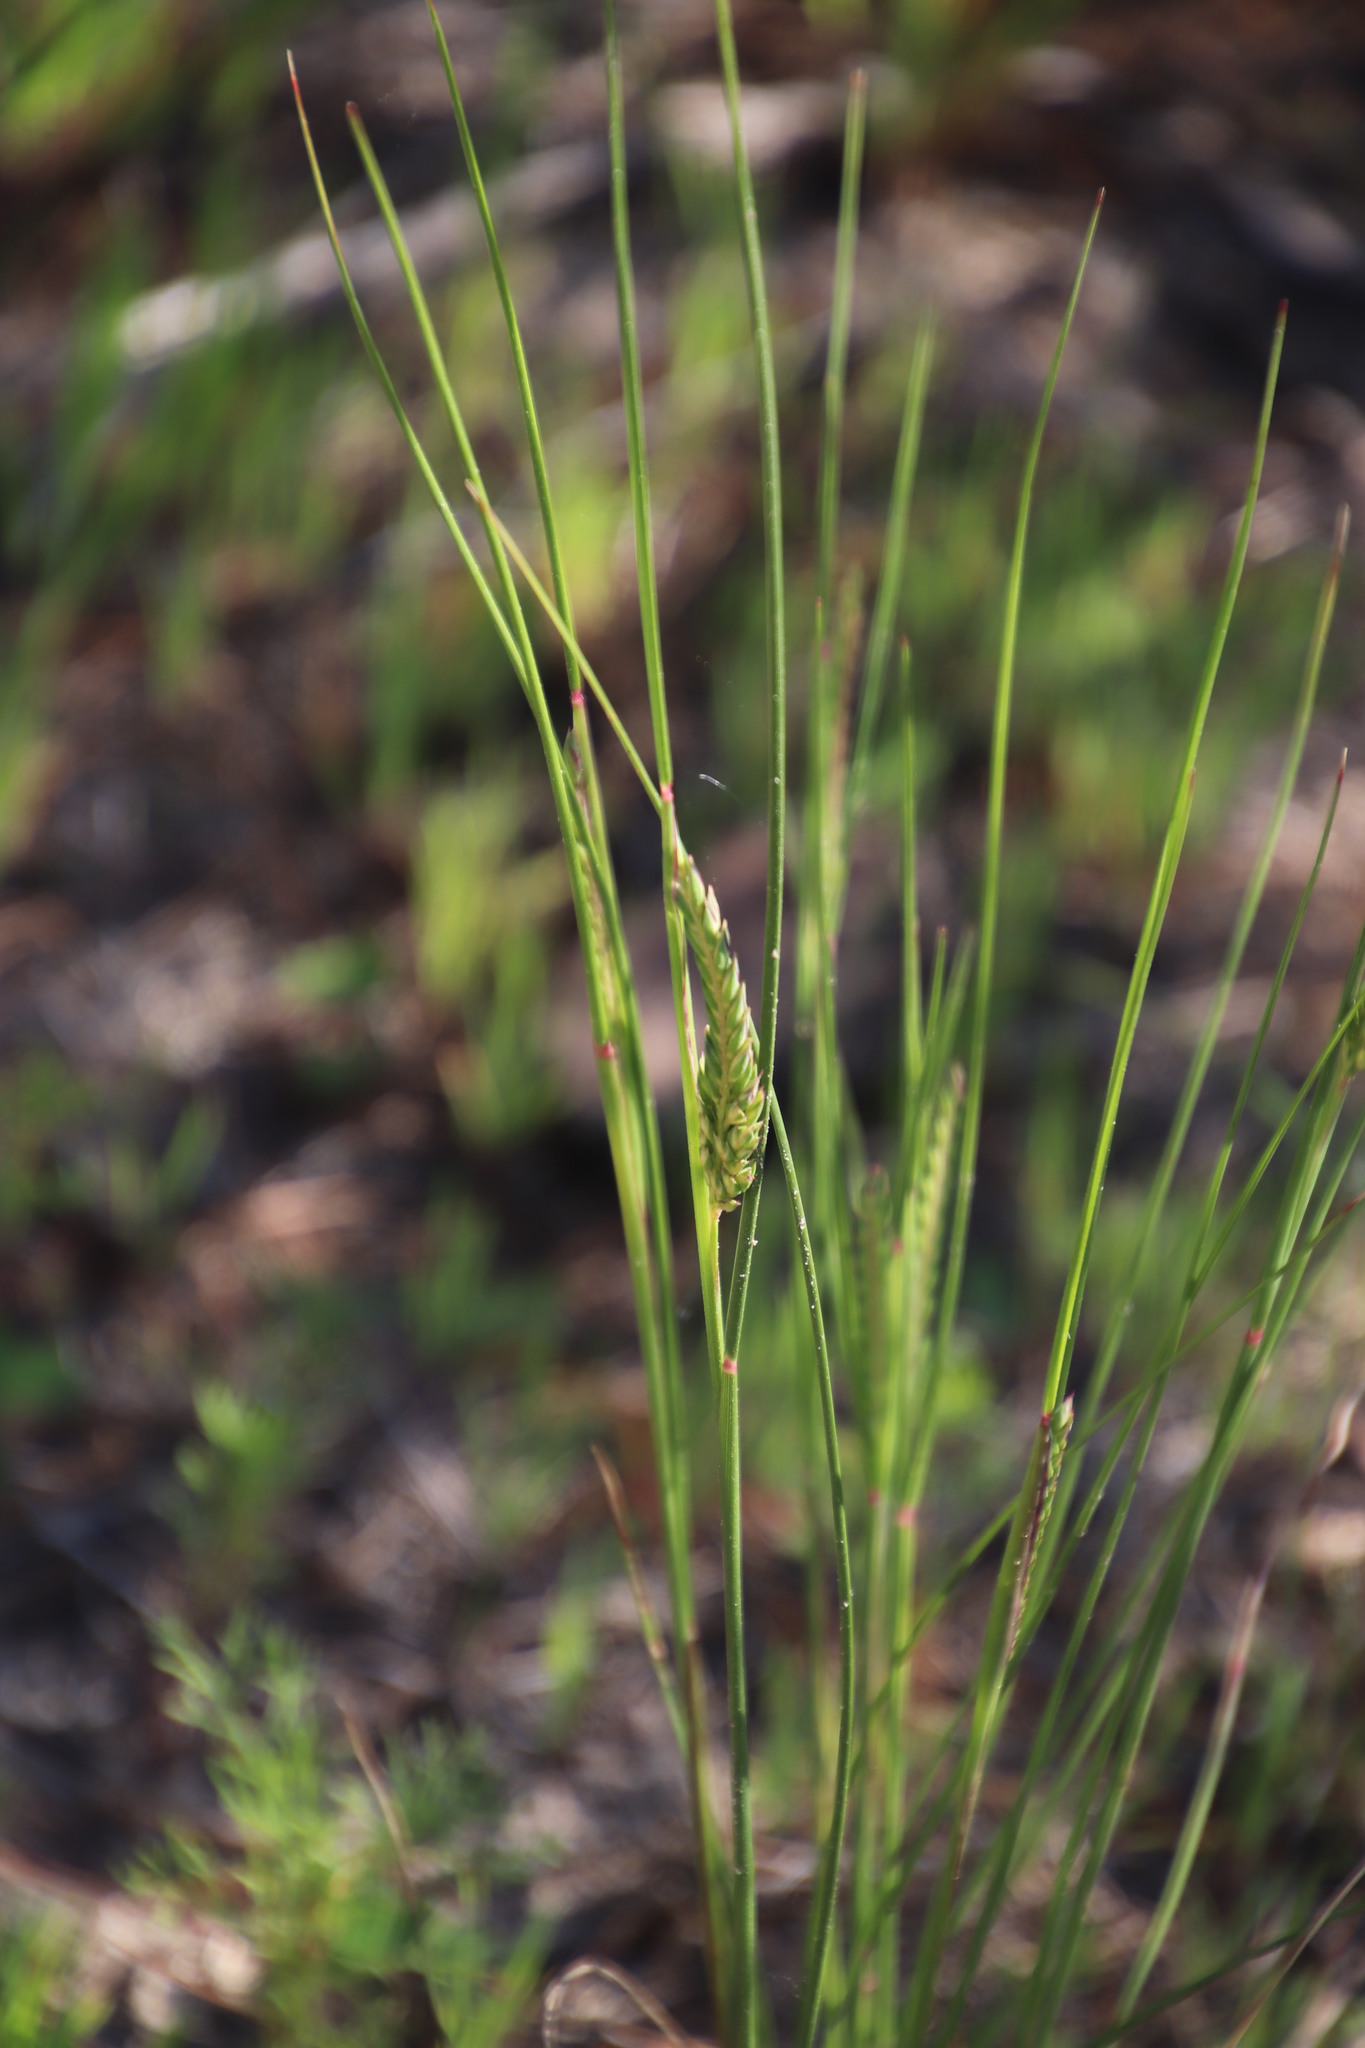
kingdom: Plantae
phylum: Tracheophyta
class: Liliopsida
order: Poales
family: Poaceae
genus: Tribolium
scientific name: Tribolium uniolae
